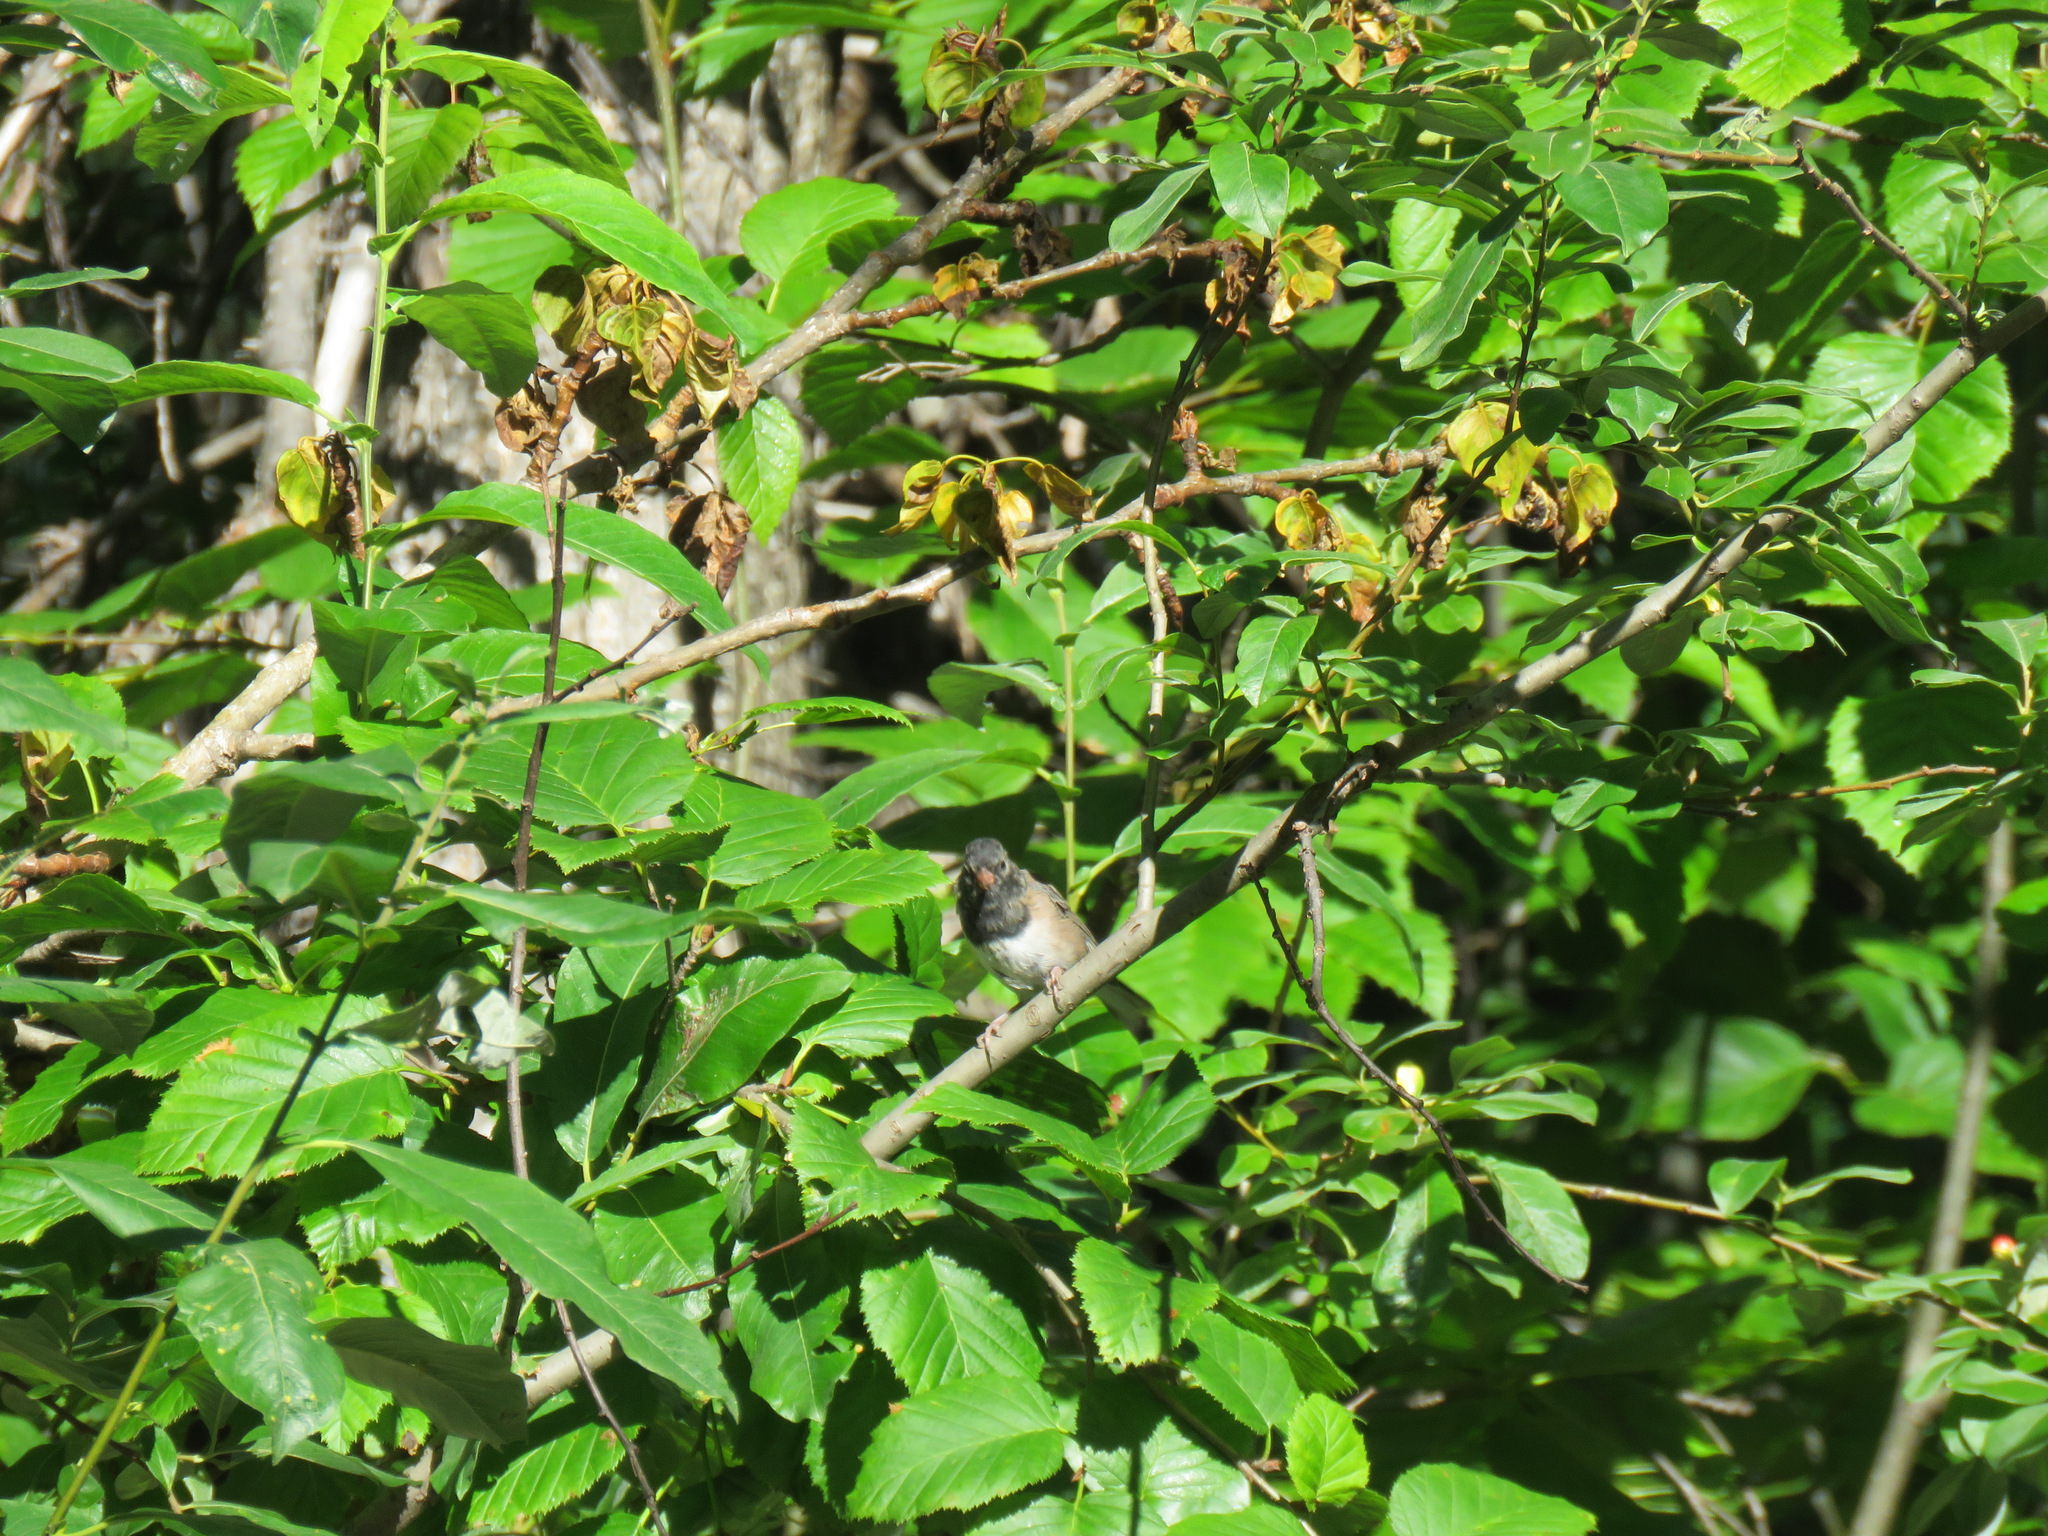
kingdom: Animalia
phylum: Chordata
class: Aves
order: Passeriformes
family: Passerellidae
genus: Junco
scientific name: Junco hyemalis
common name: Dark-eyed junco
